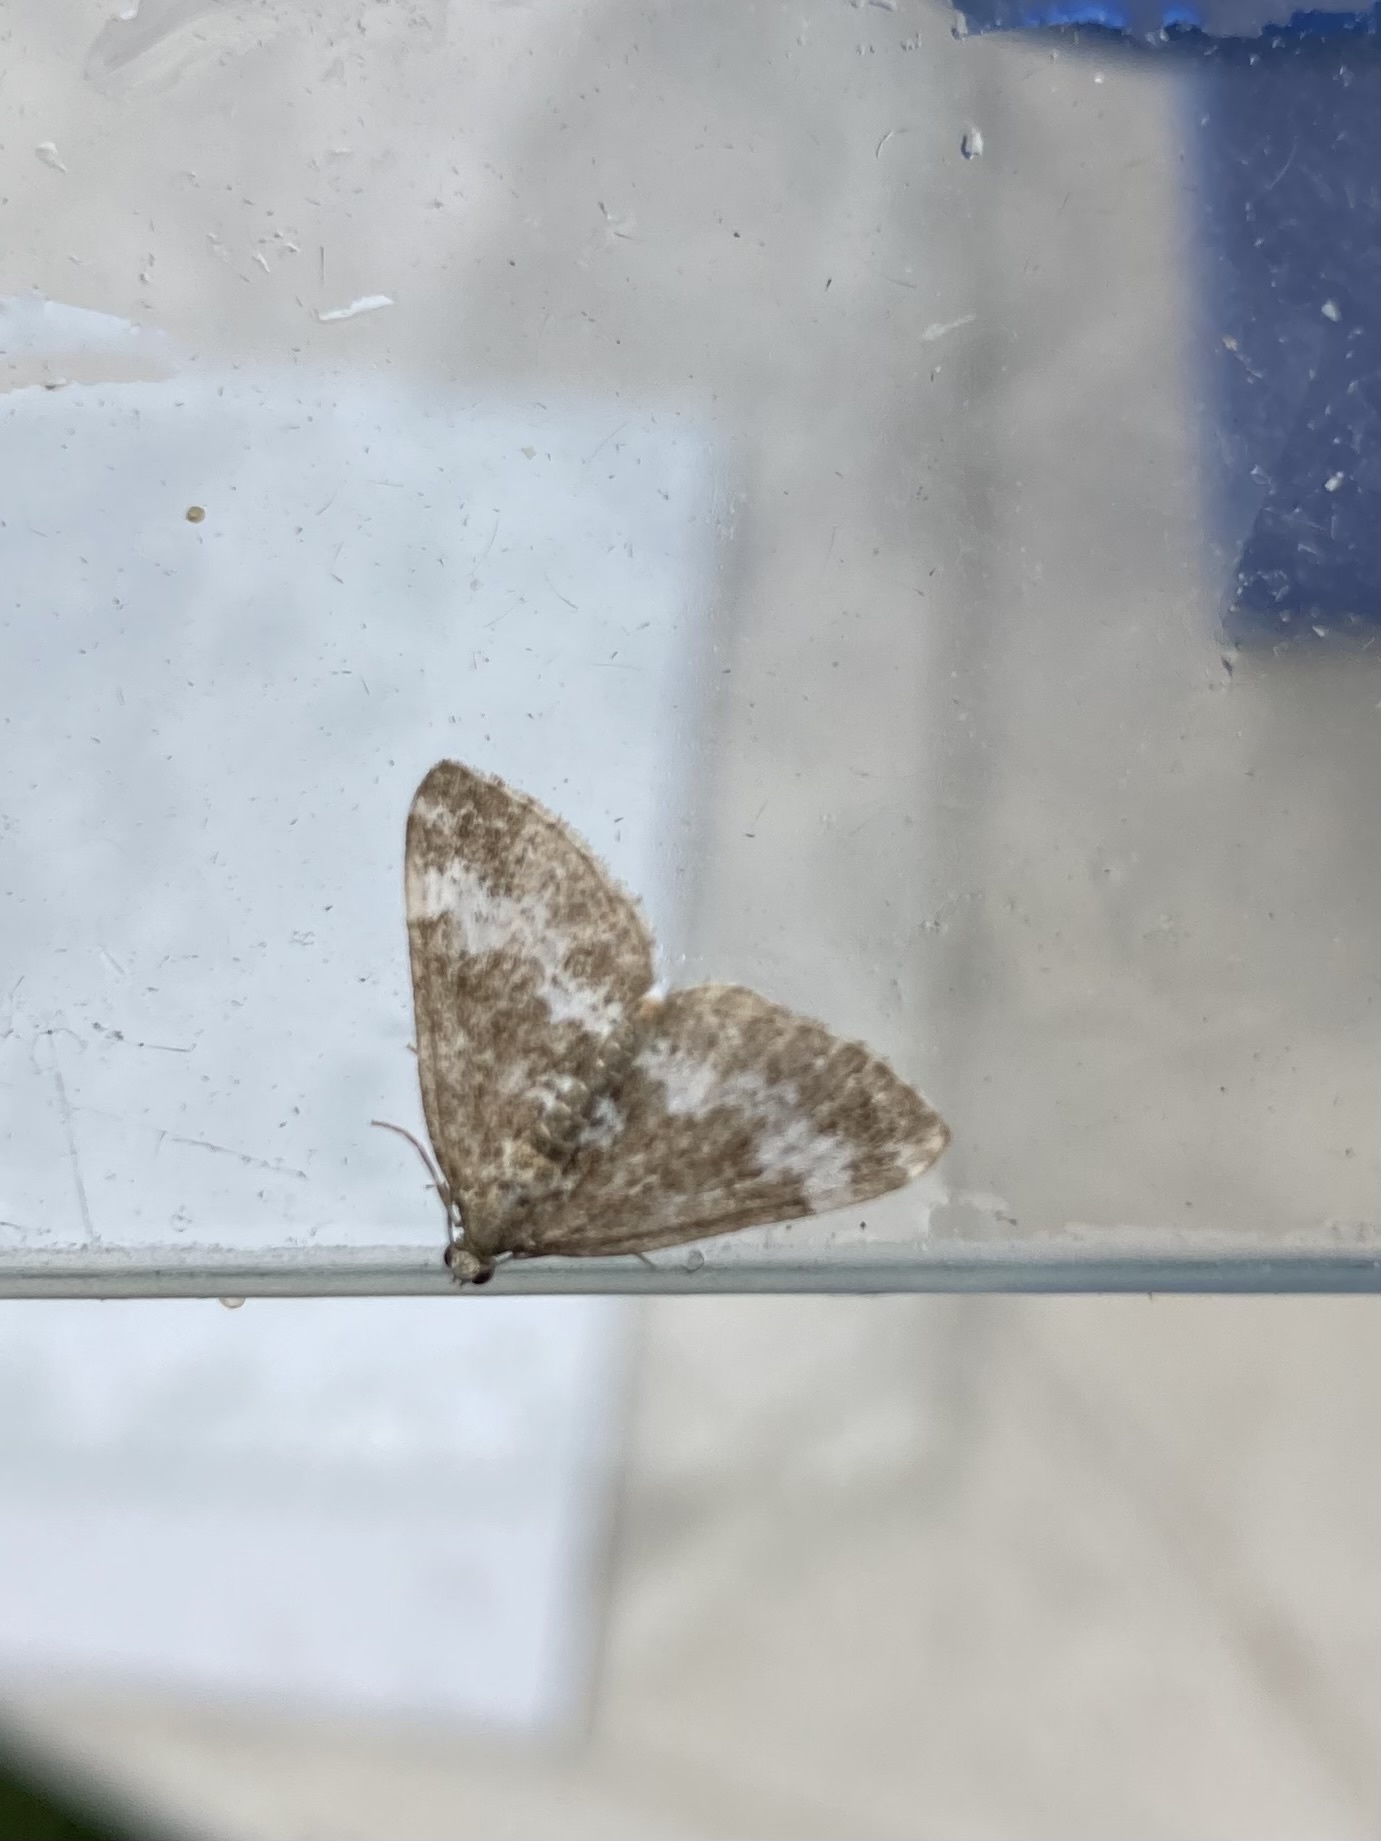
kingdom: Animalia
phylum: Arthropoda
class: Insecta
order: Lepidoptera
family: Geometridae
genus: Perizoma
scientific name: Perizoma alchemillata
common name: Small rivulet
